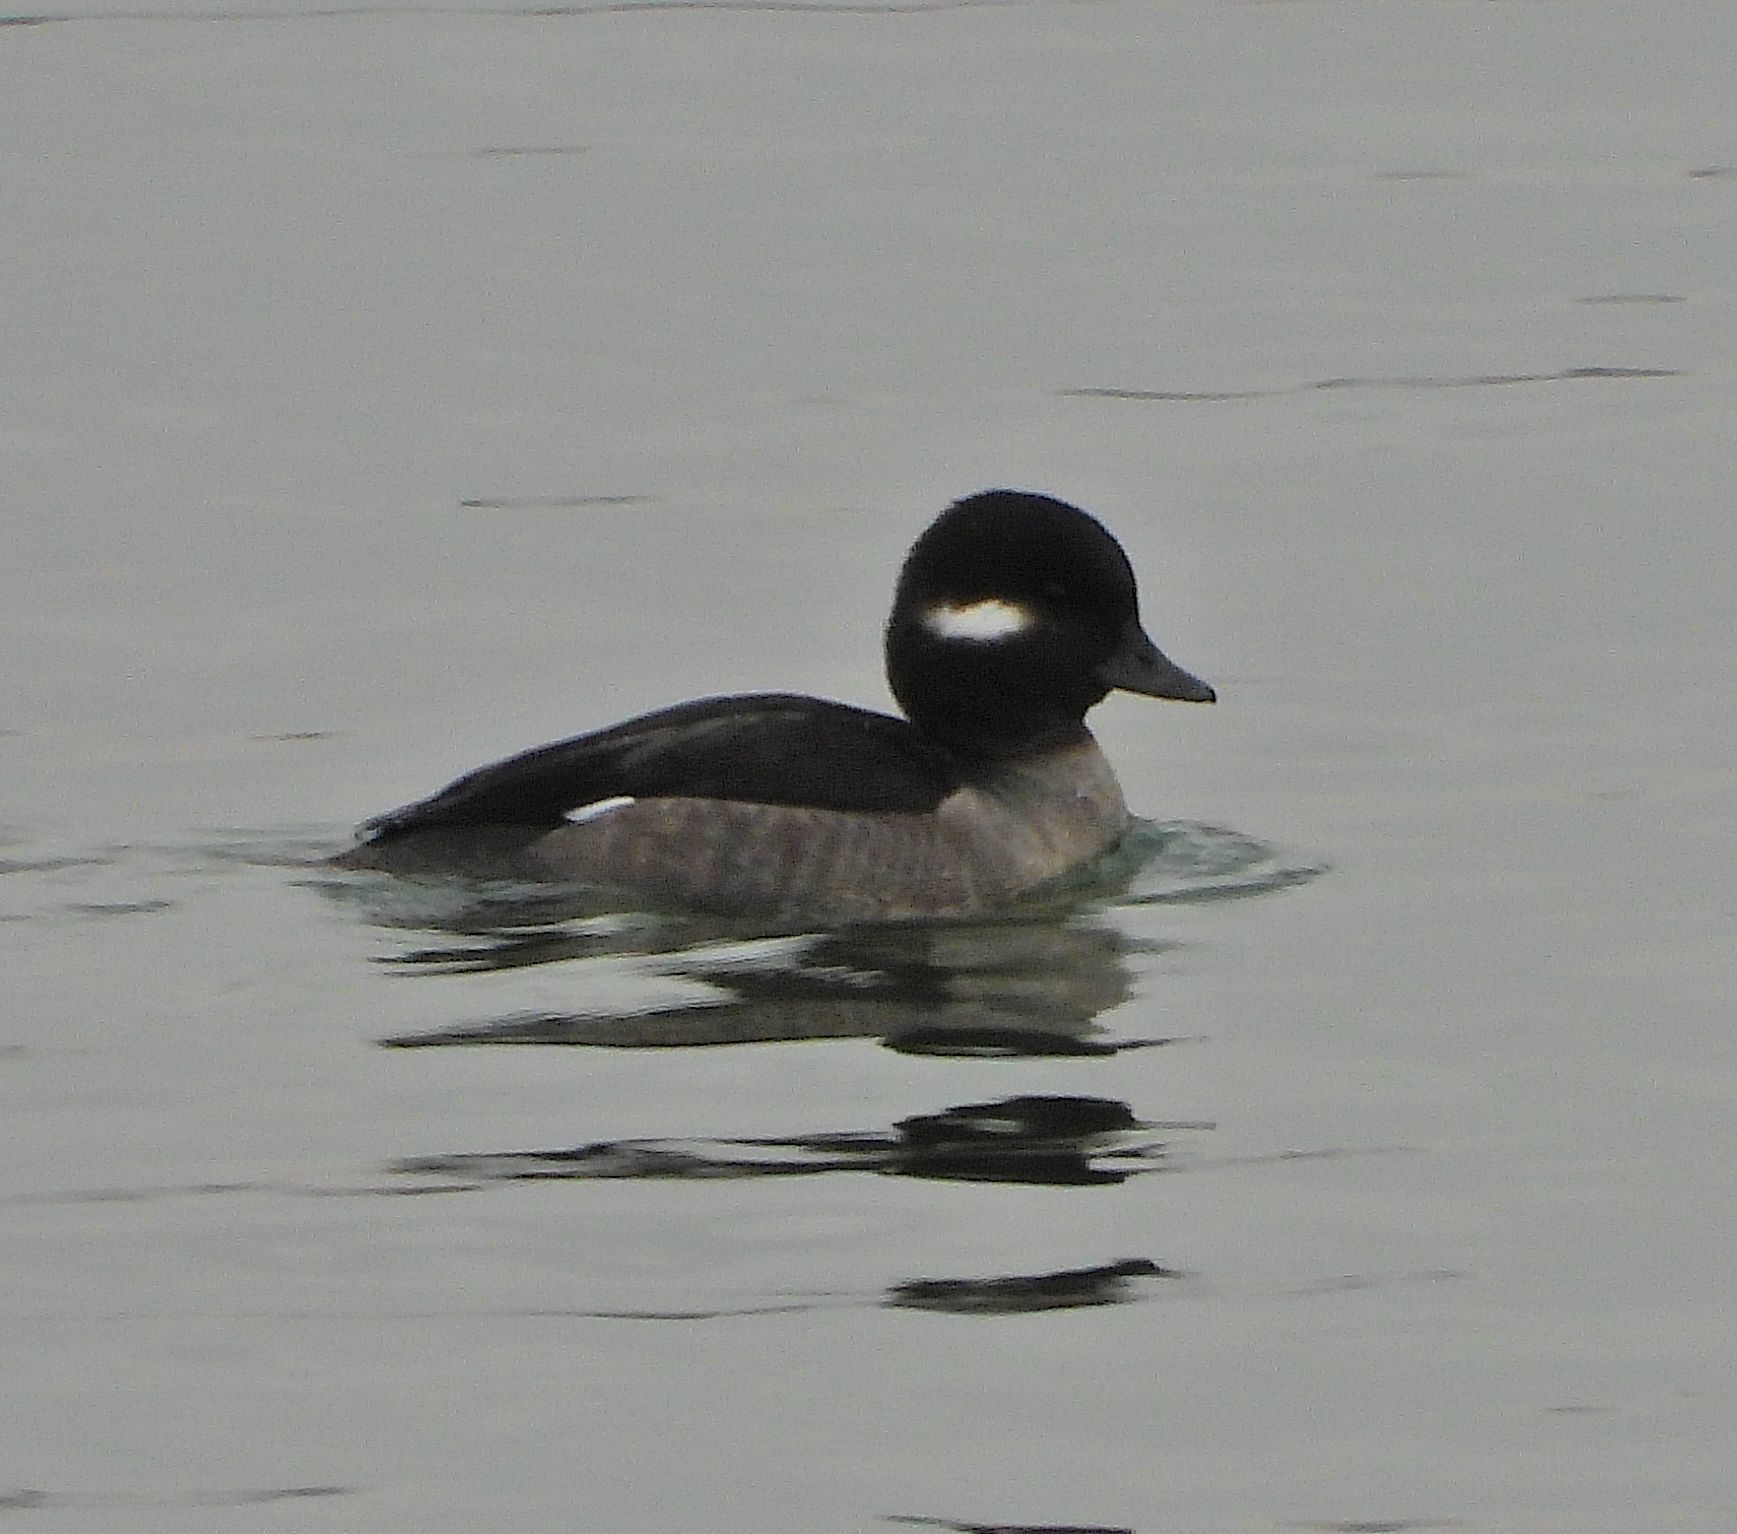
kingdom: Animalia
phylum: Chordata
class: Aves
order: Anseriformes
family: Anatidae
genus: Bucephala
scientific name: Bucephala albeola
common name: Bufflehead
